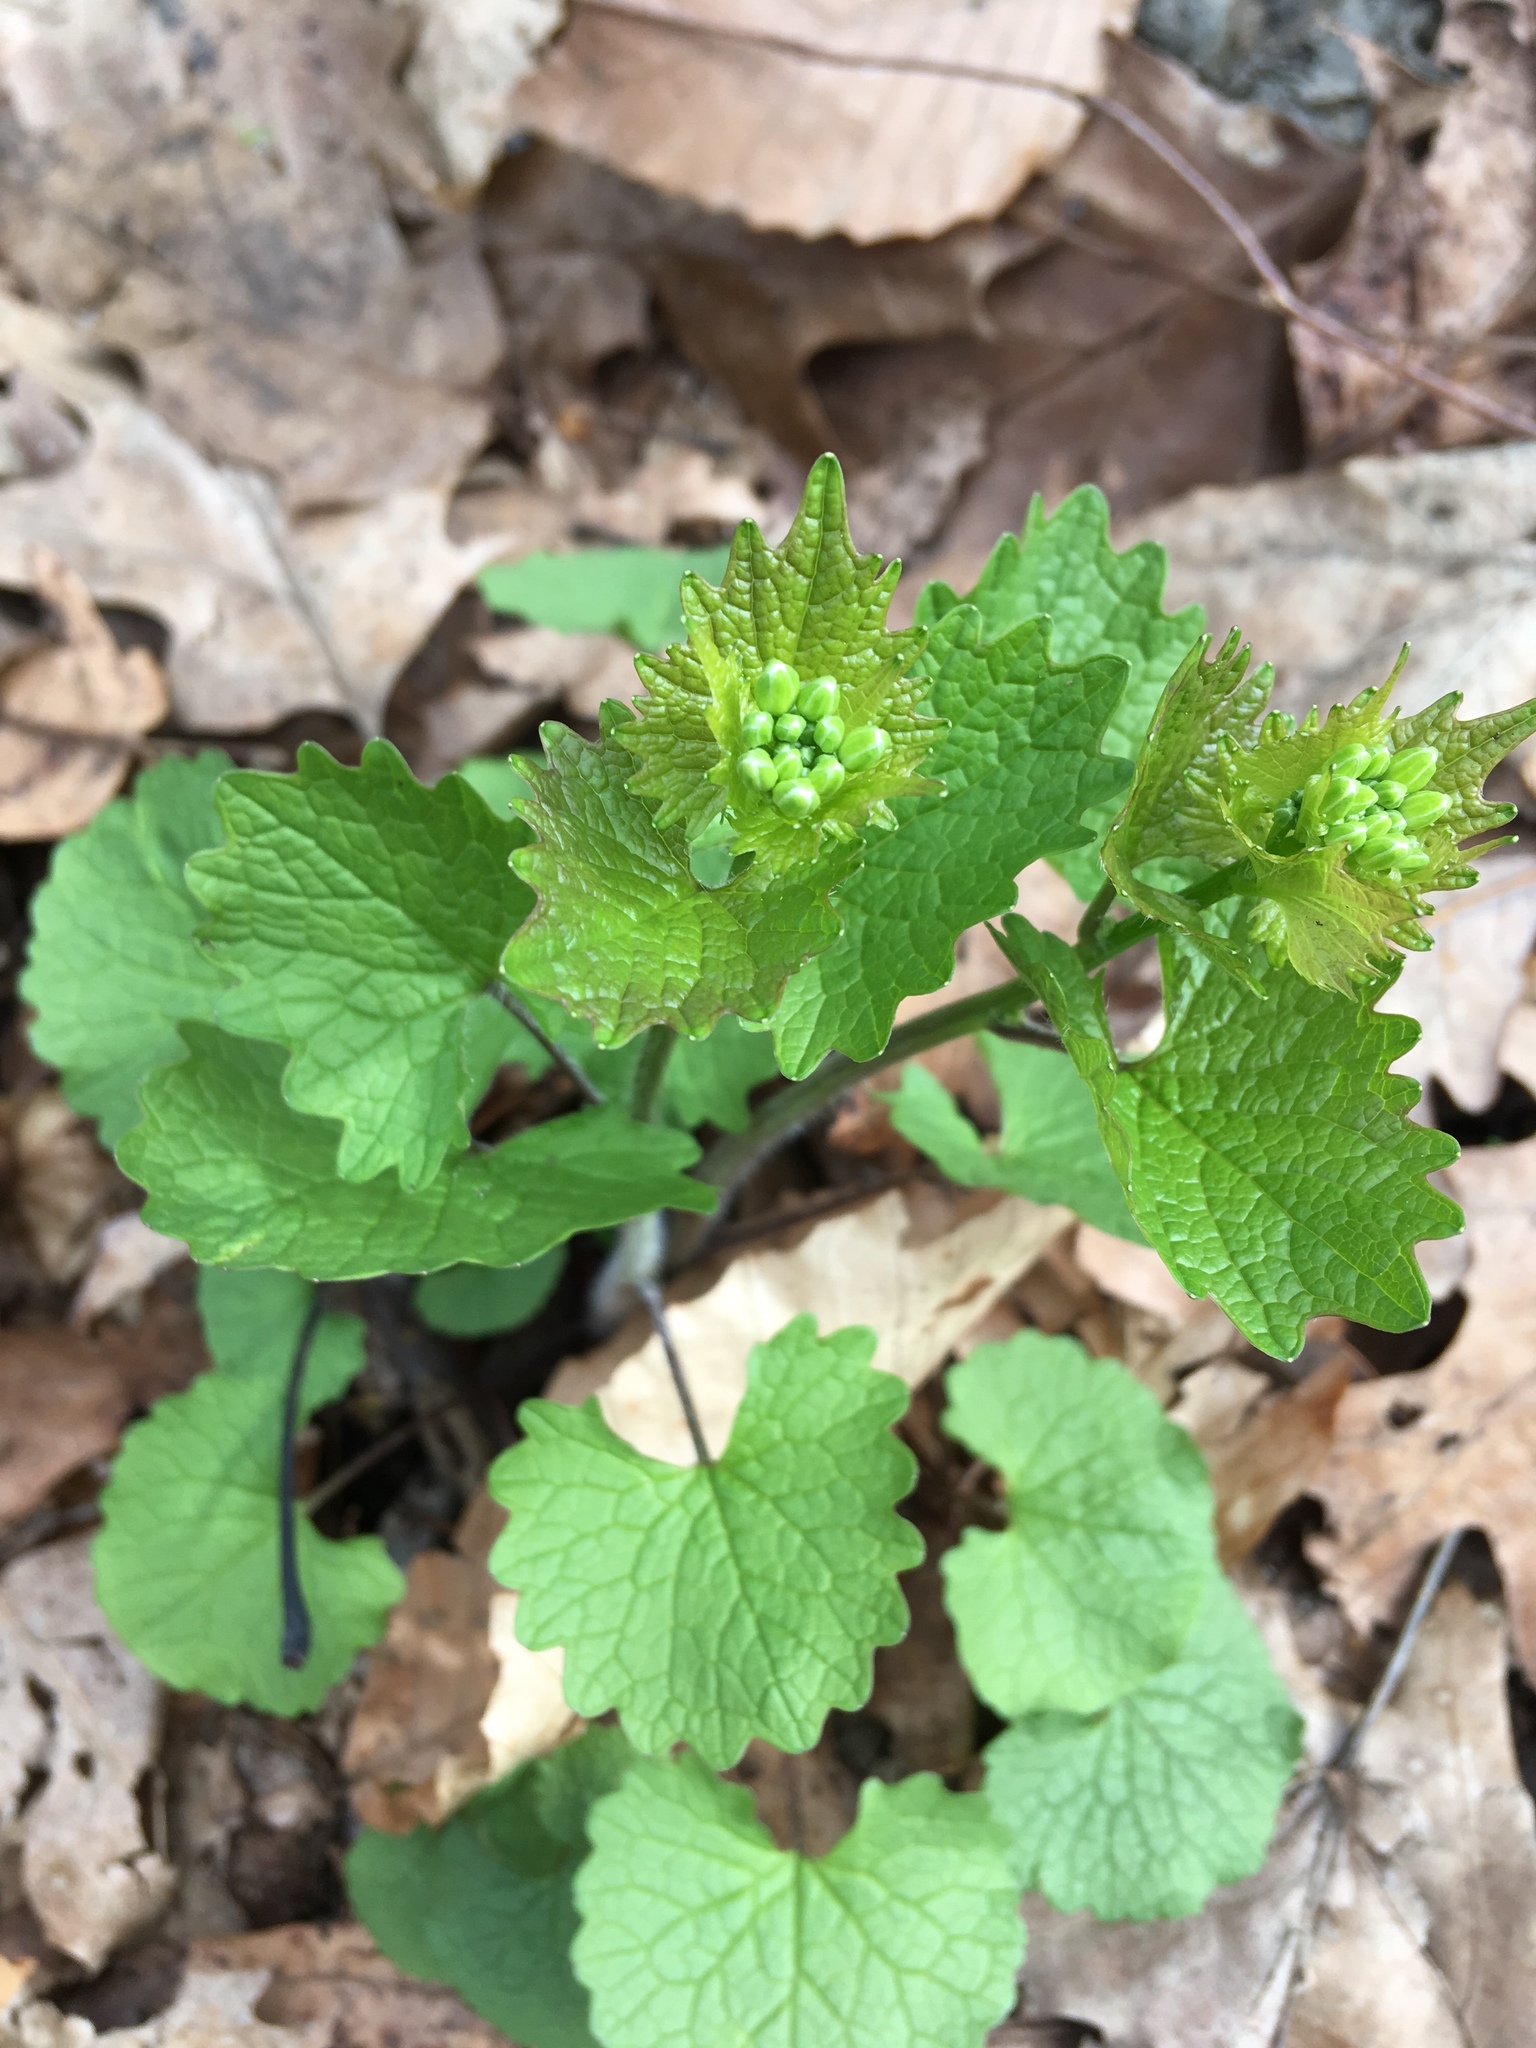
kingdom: Plantae
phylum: Tracheophyta
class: Magnoliopsida
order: Brassicales
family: Brassicaceae
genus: Alliaria
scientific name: Alliaria petiolata
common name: Garlic mustard
